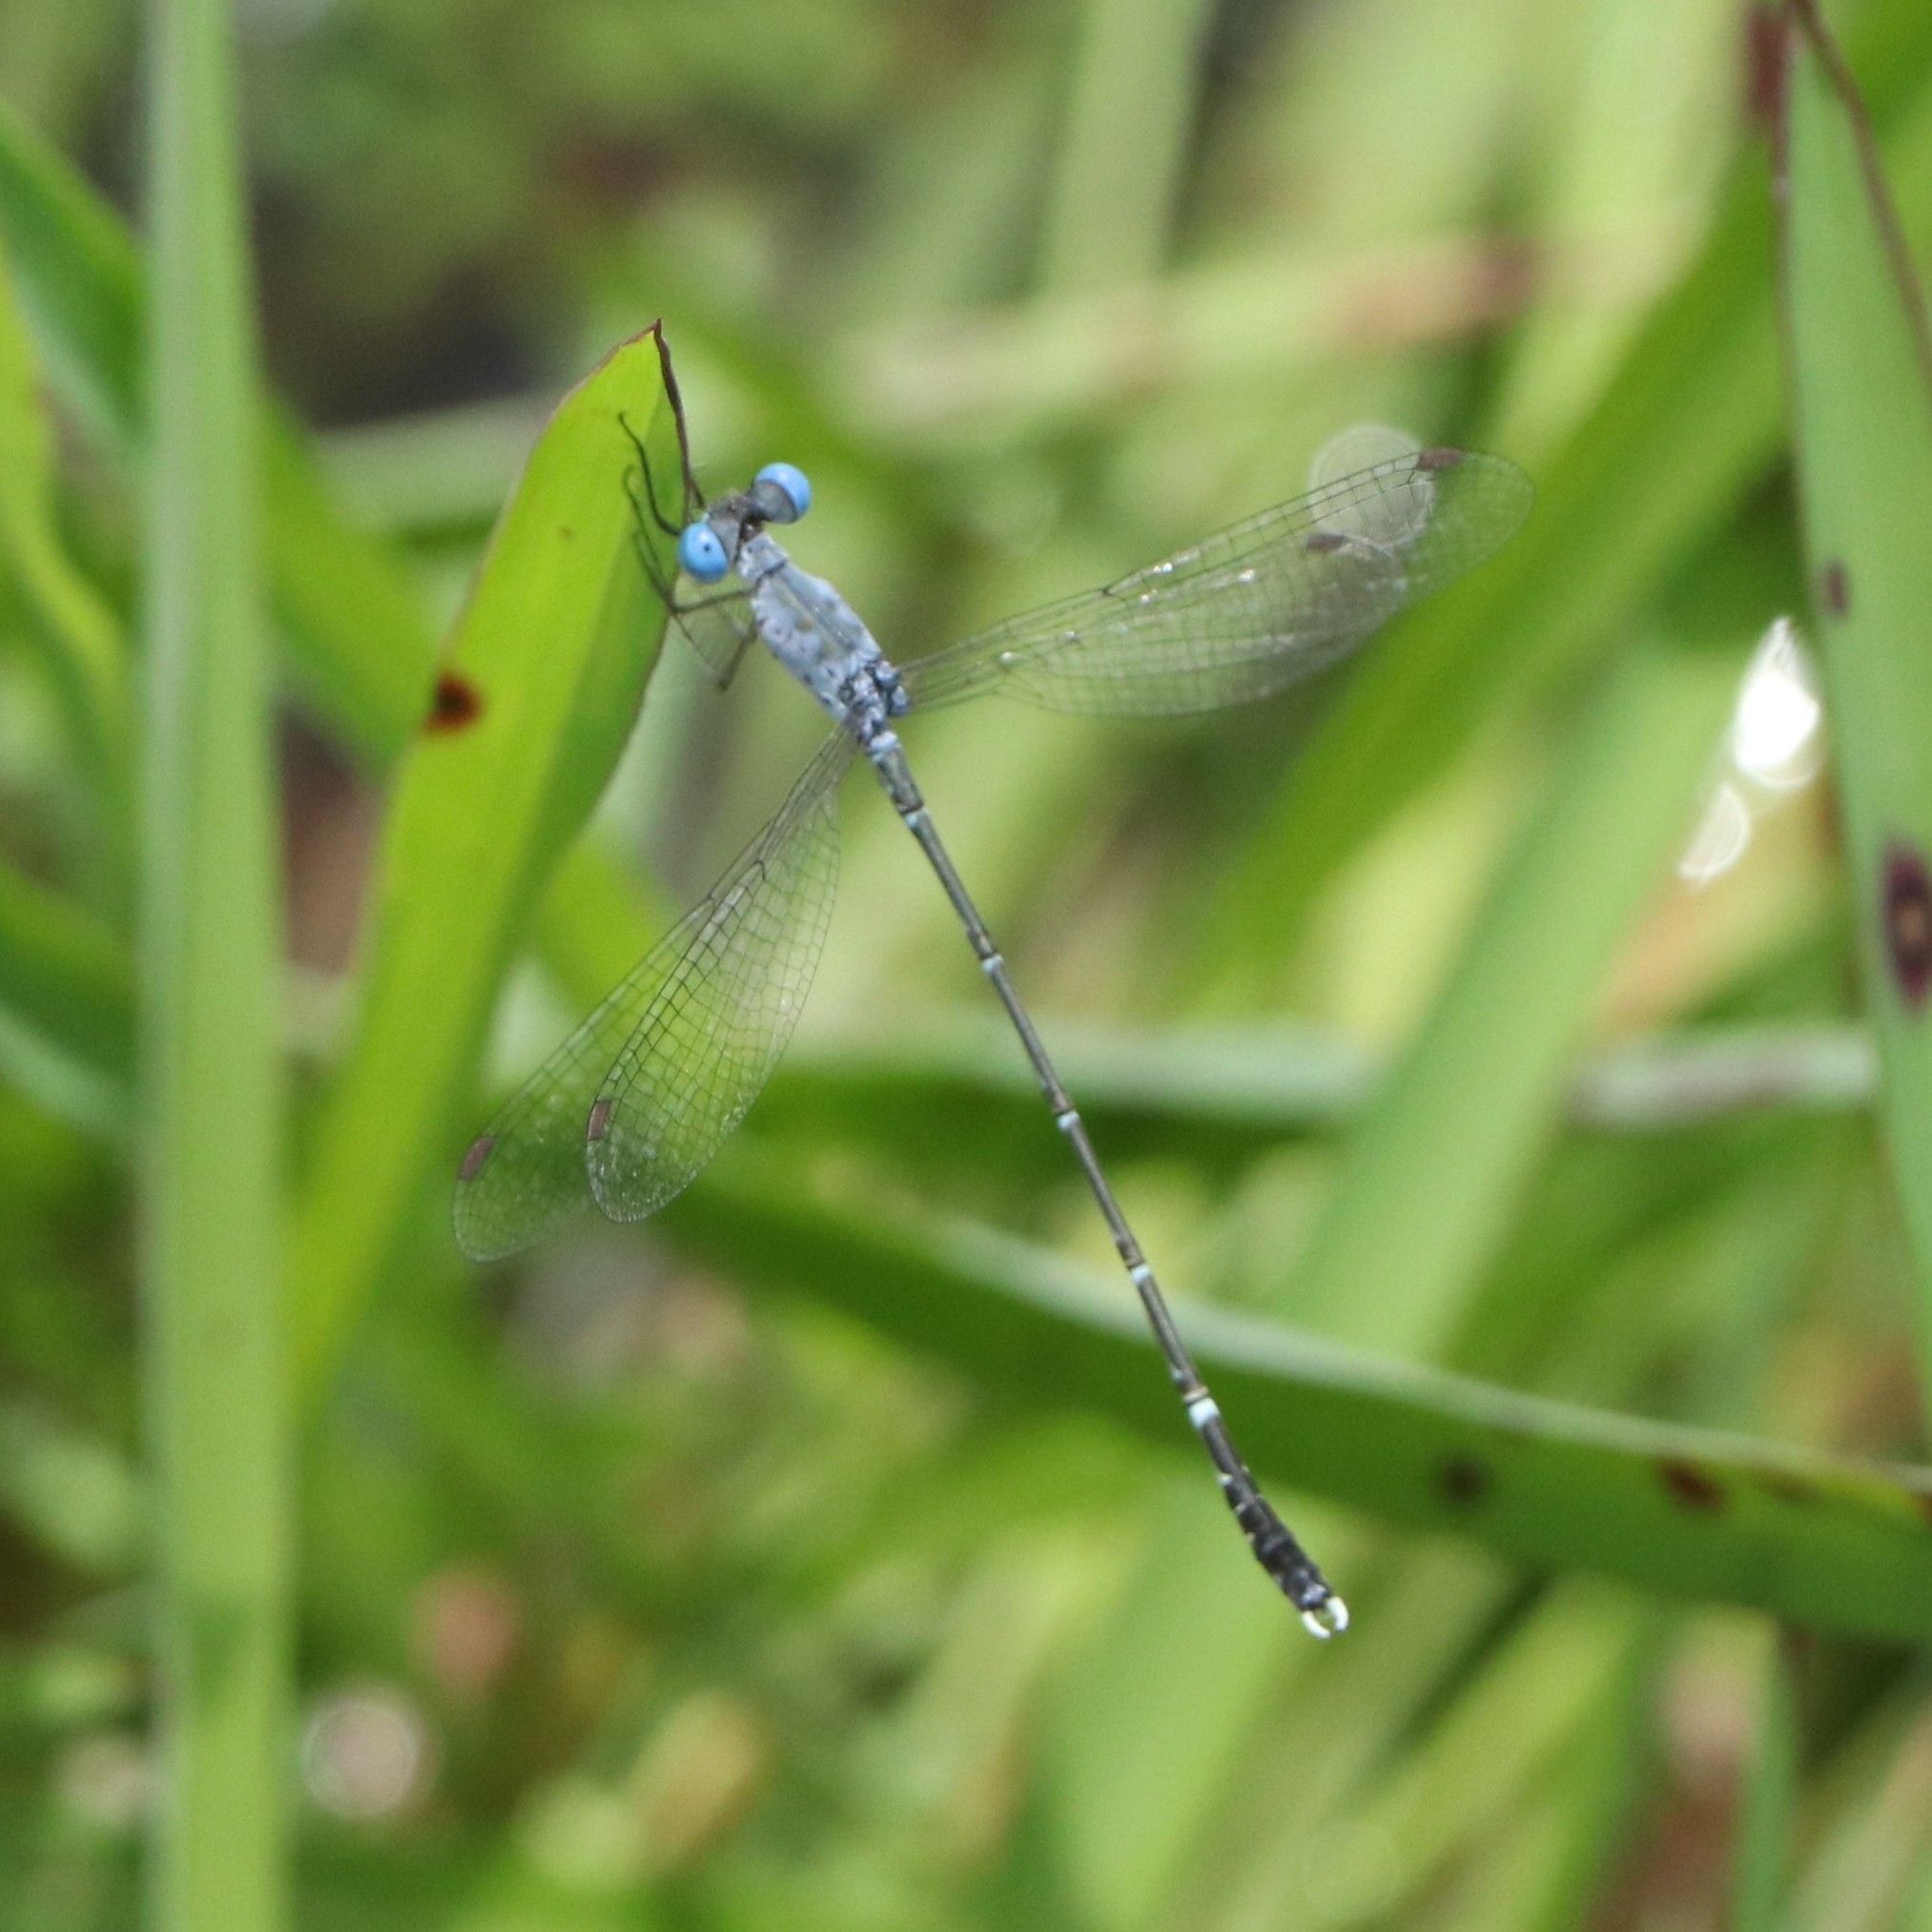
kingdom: Animalia
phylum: Arthropoda
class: Insecta
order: Odonata
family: Lestidae
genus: Lestes
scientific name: Lestes praemorsus
